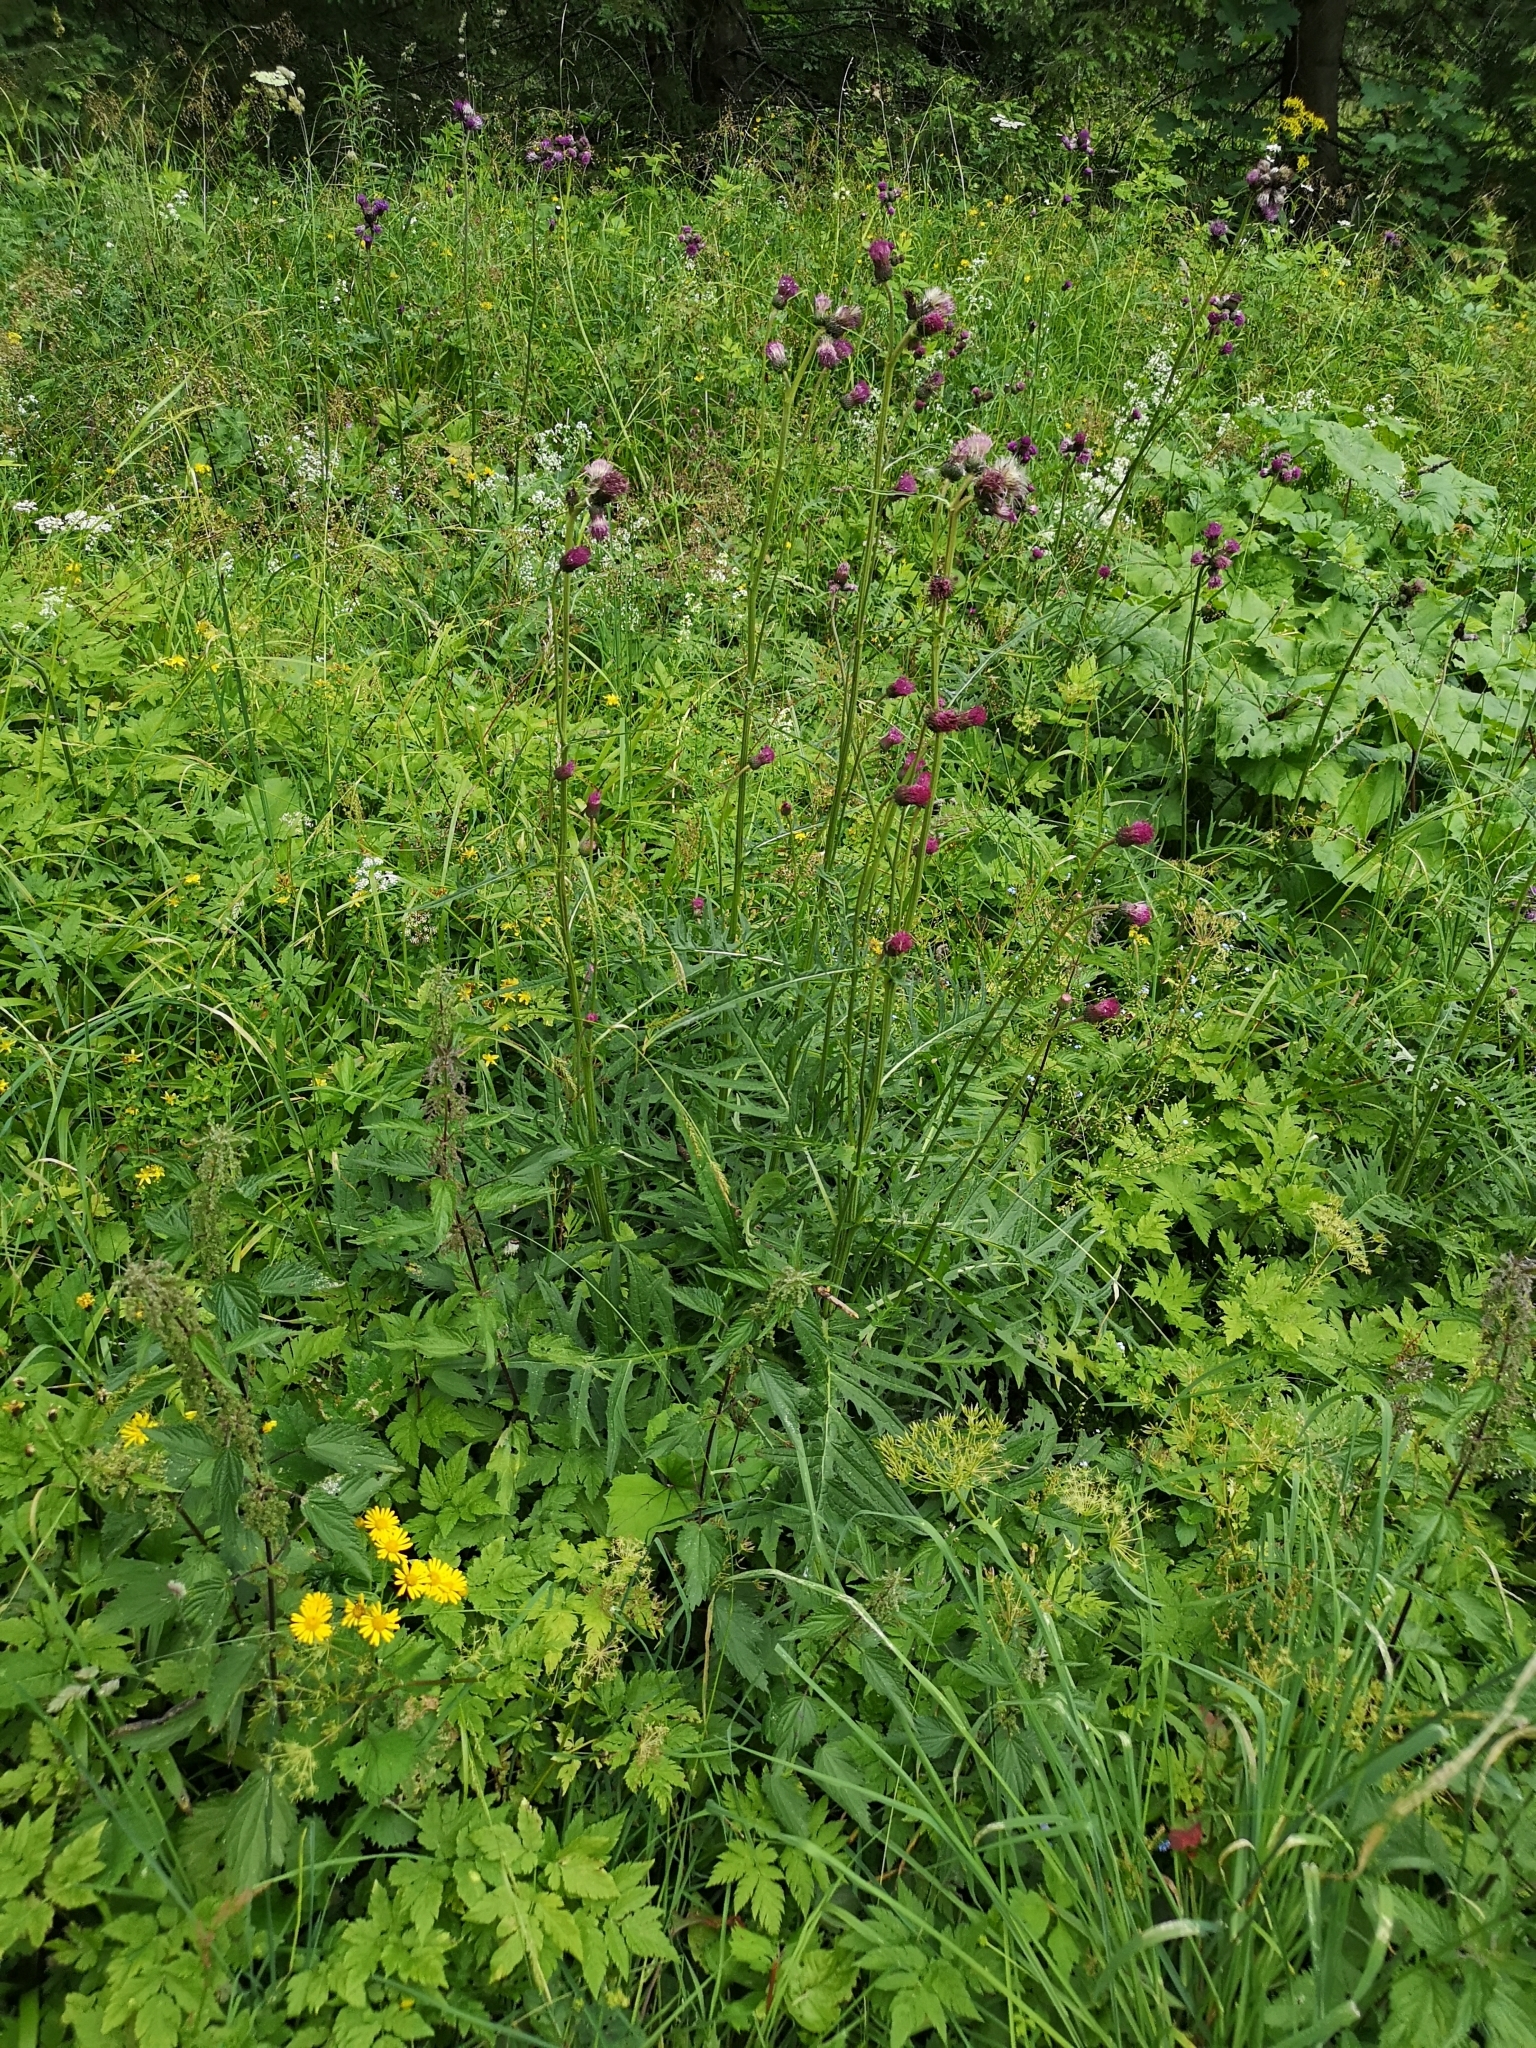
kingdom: Plantae
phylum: Tracheophyta
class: Magnoliopsida
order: Asterales
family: Asteraceae
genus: Cirsium
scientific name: Cirsium rivulare
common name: Brook thistle
